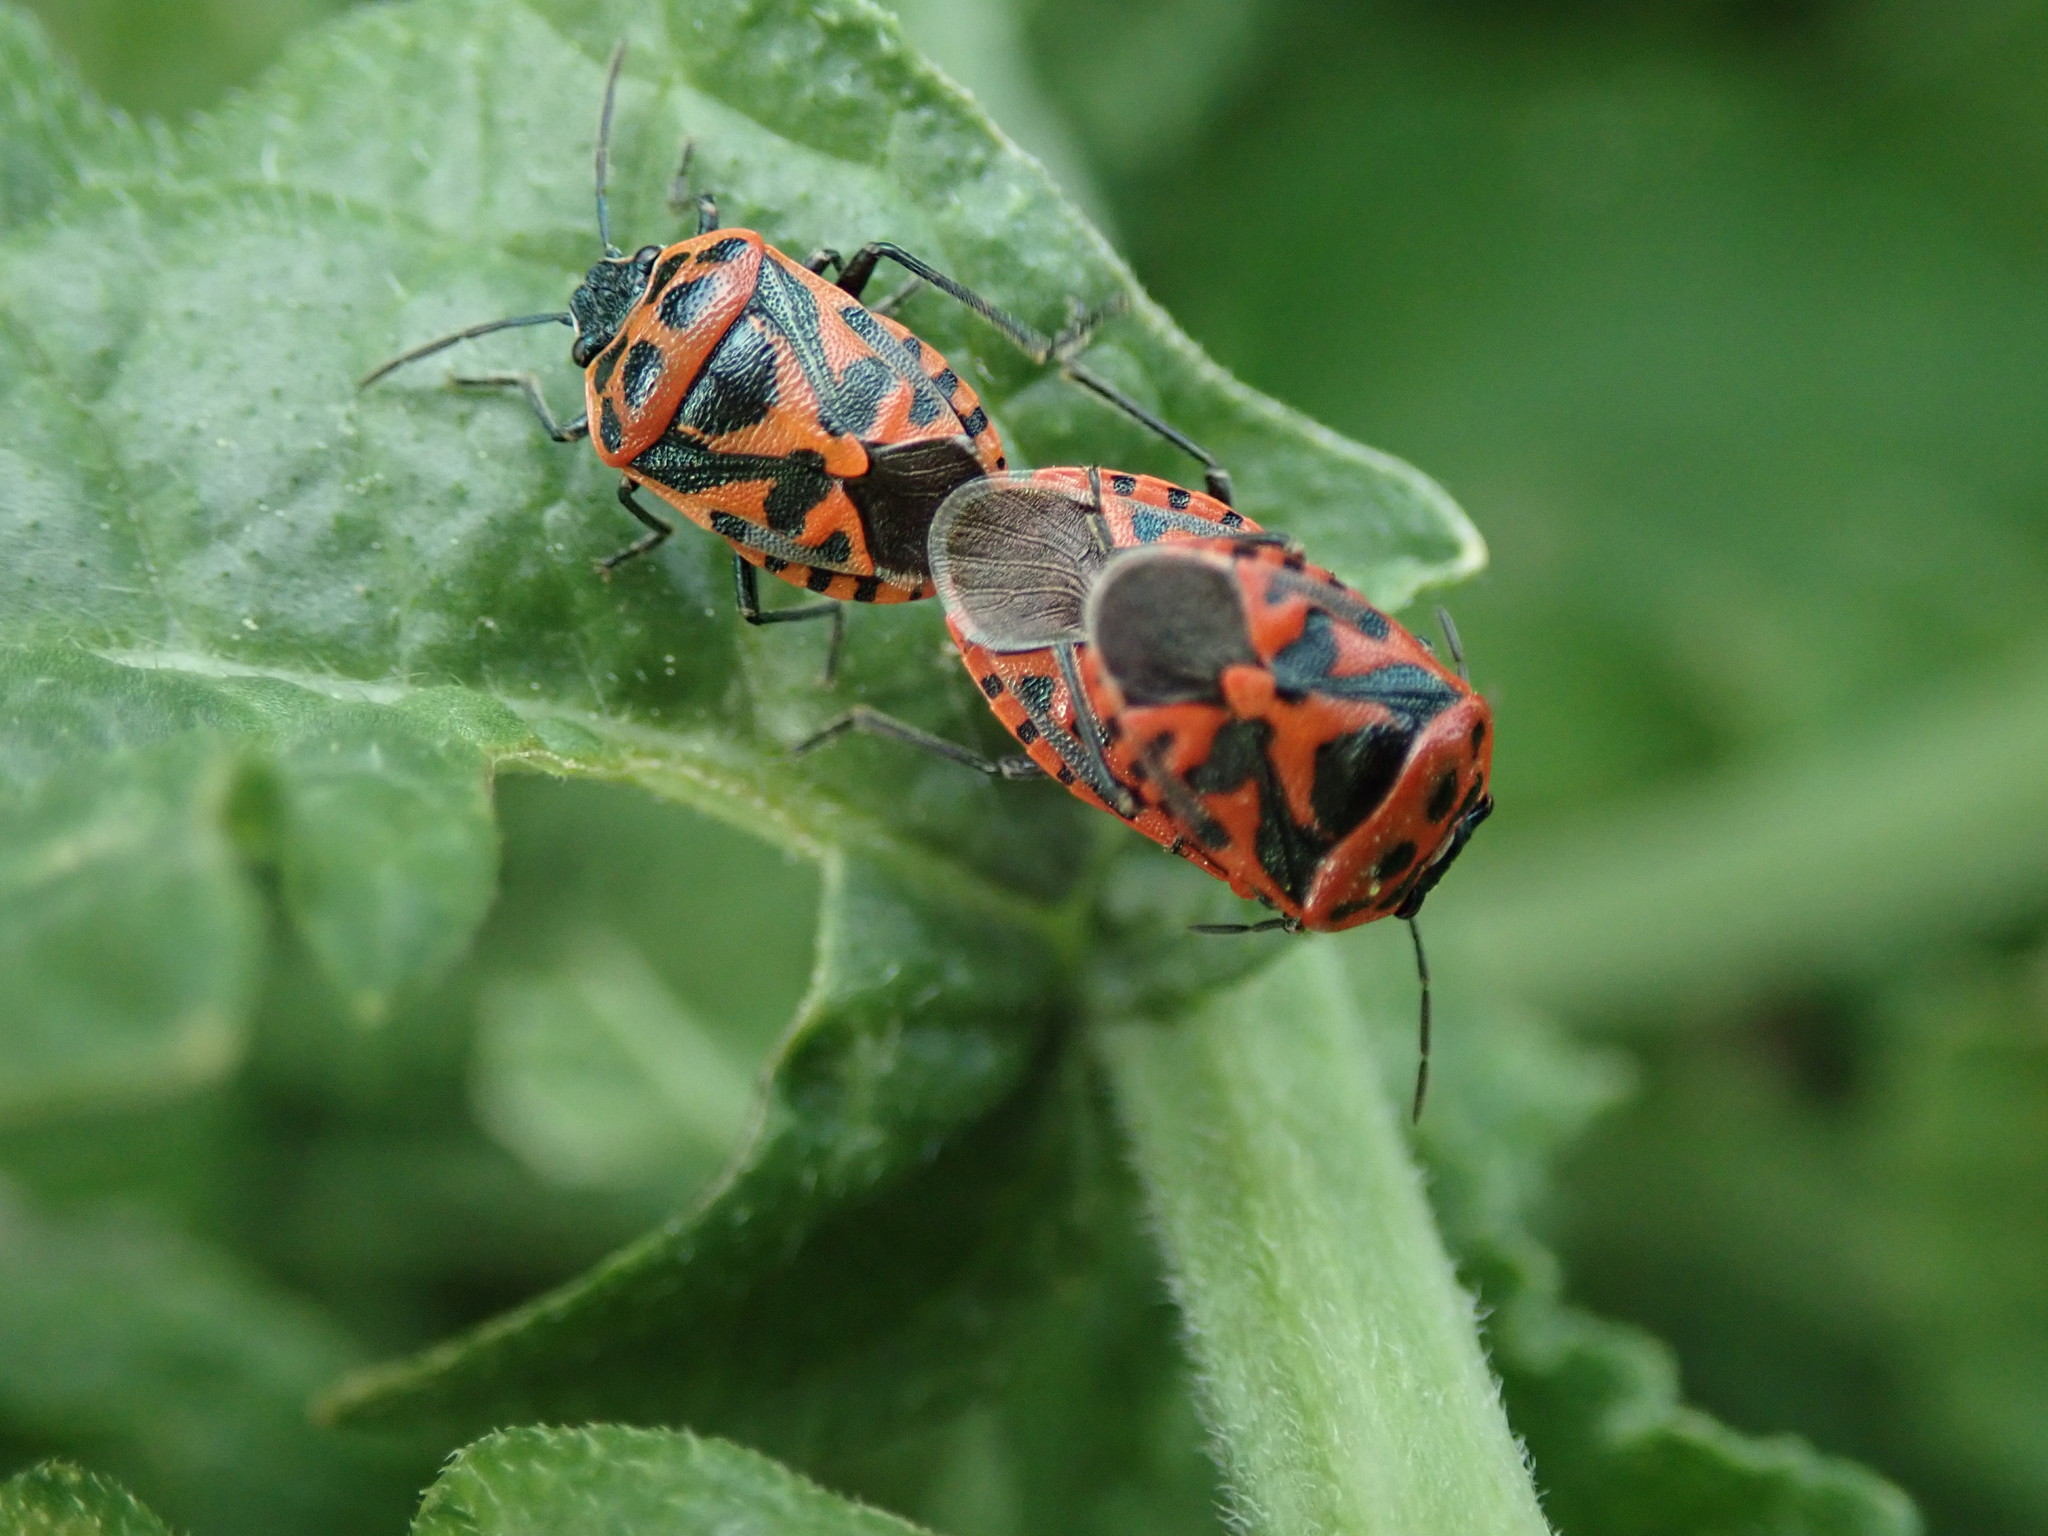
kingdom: Animalia
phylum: Arthropoda
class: Insecta
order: Hemiptera
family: Pentatomidae
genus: Eurydema
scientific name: Eurydema ornata
